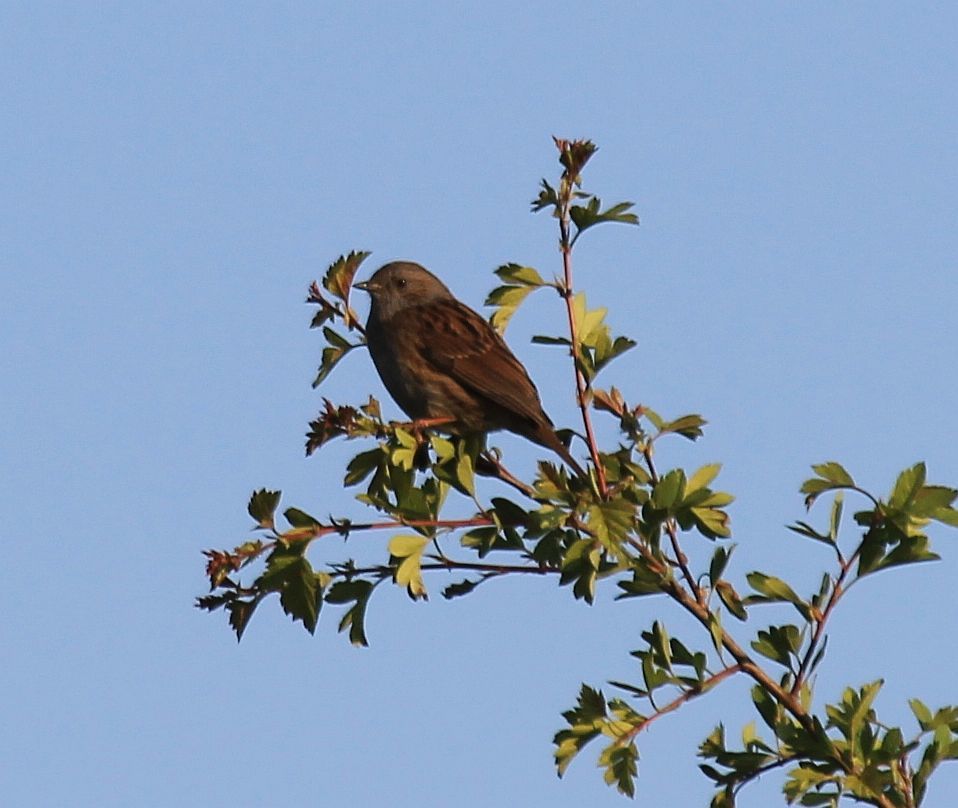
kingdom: Animalia
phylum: Chordata
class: Aves
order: Passeriformes
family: Prunellidae
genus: Prunella
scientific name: Prunella modularis
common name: Dunnock
